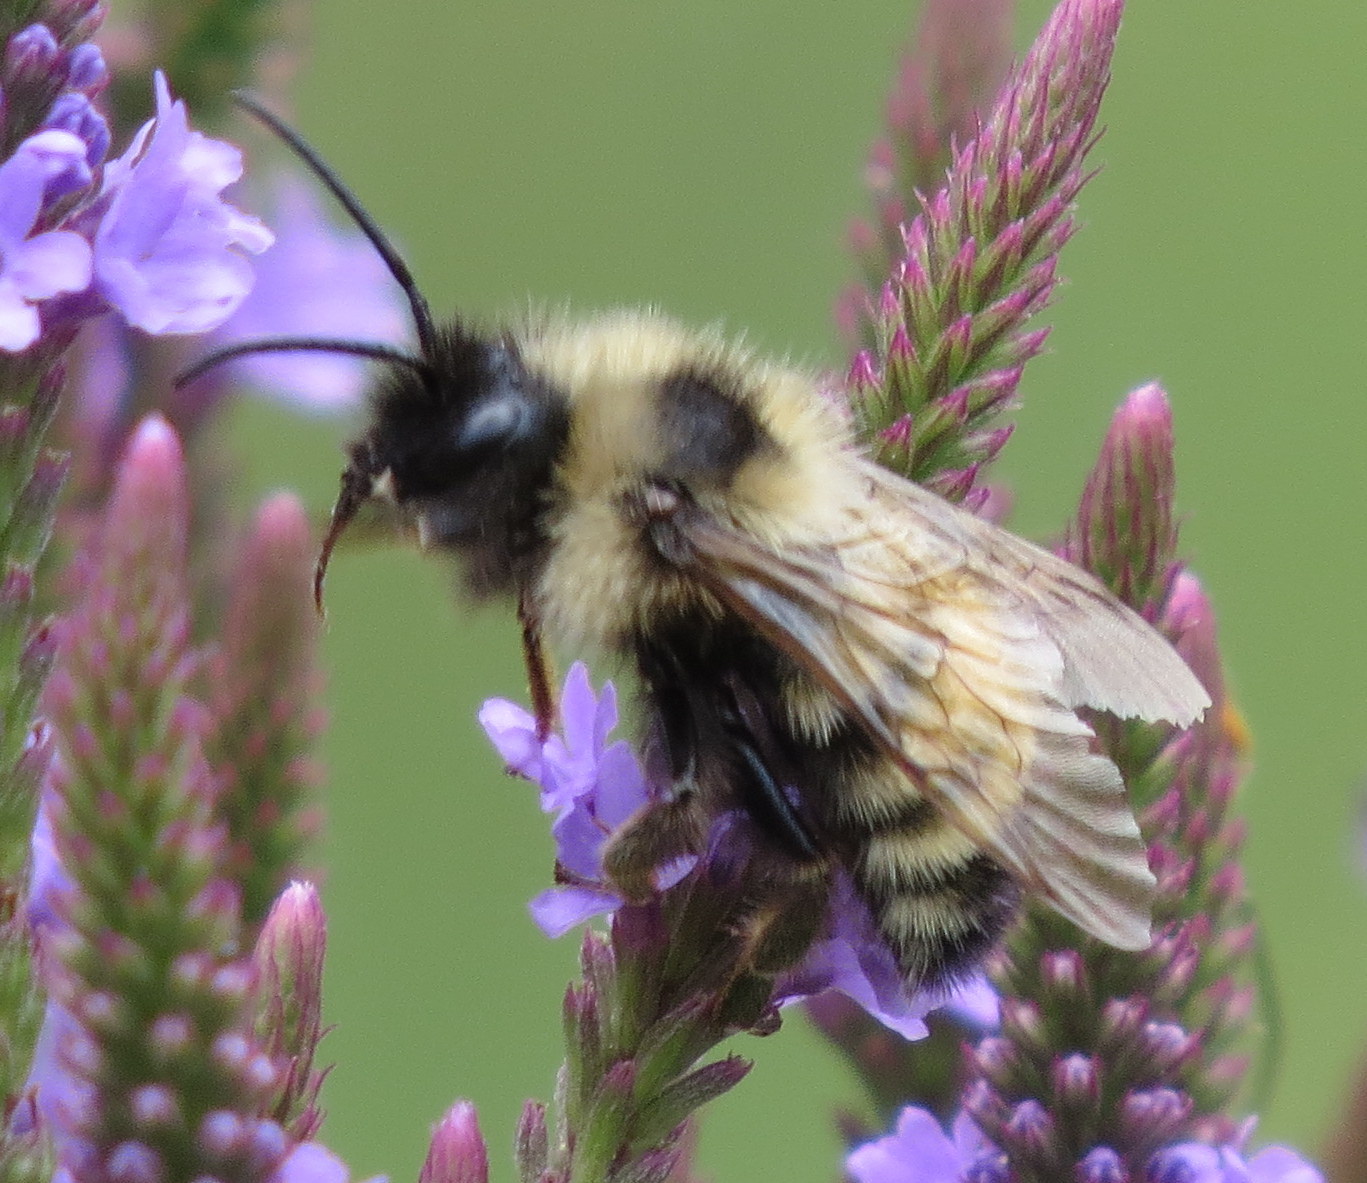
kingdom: Animalia
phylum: Arthropoda
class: Insecta
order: Hymenoptera
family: Apidae
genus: Bombus
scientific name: Bombus insularis
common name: Indiscriminate cuckoo bumble bee
